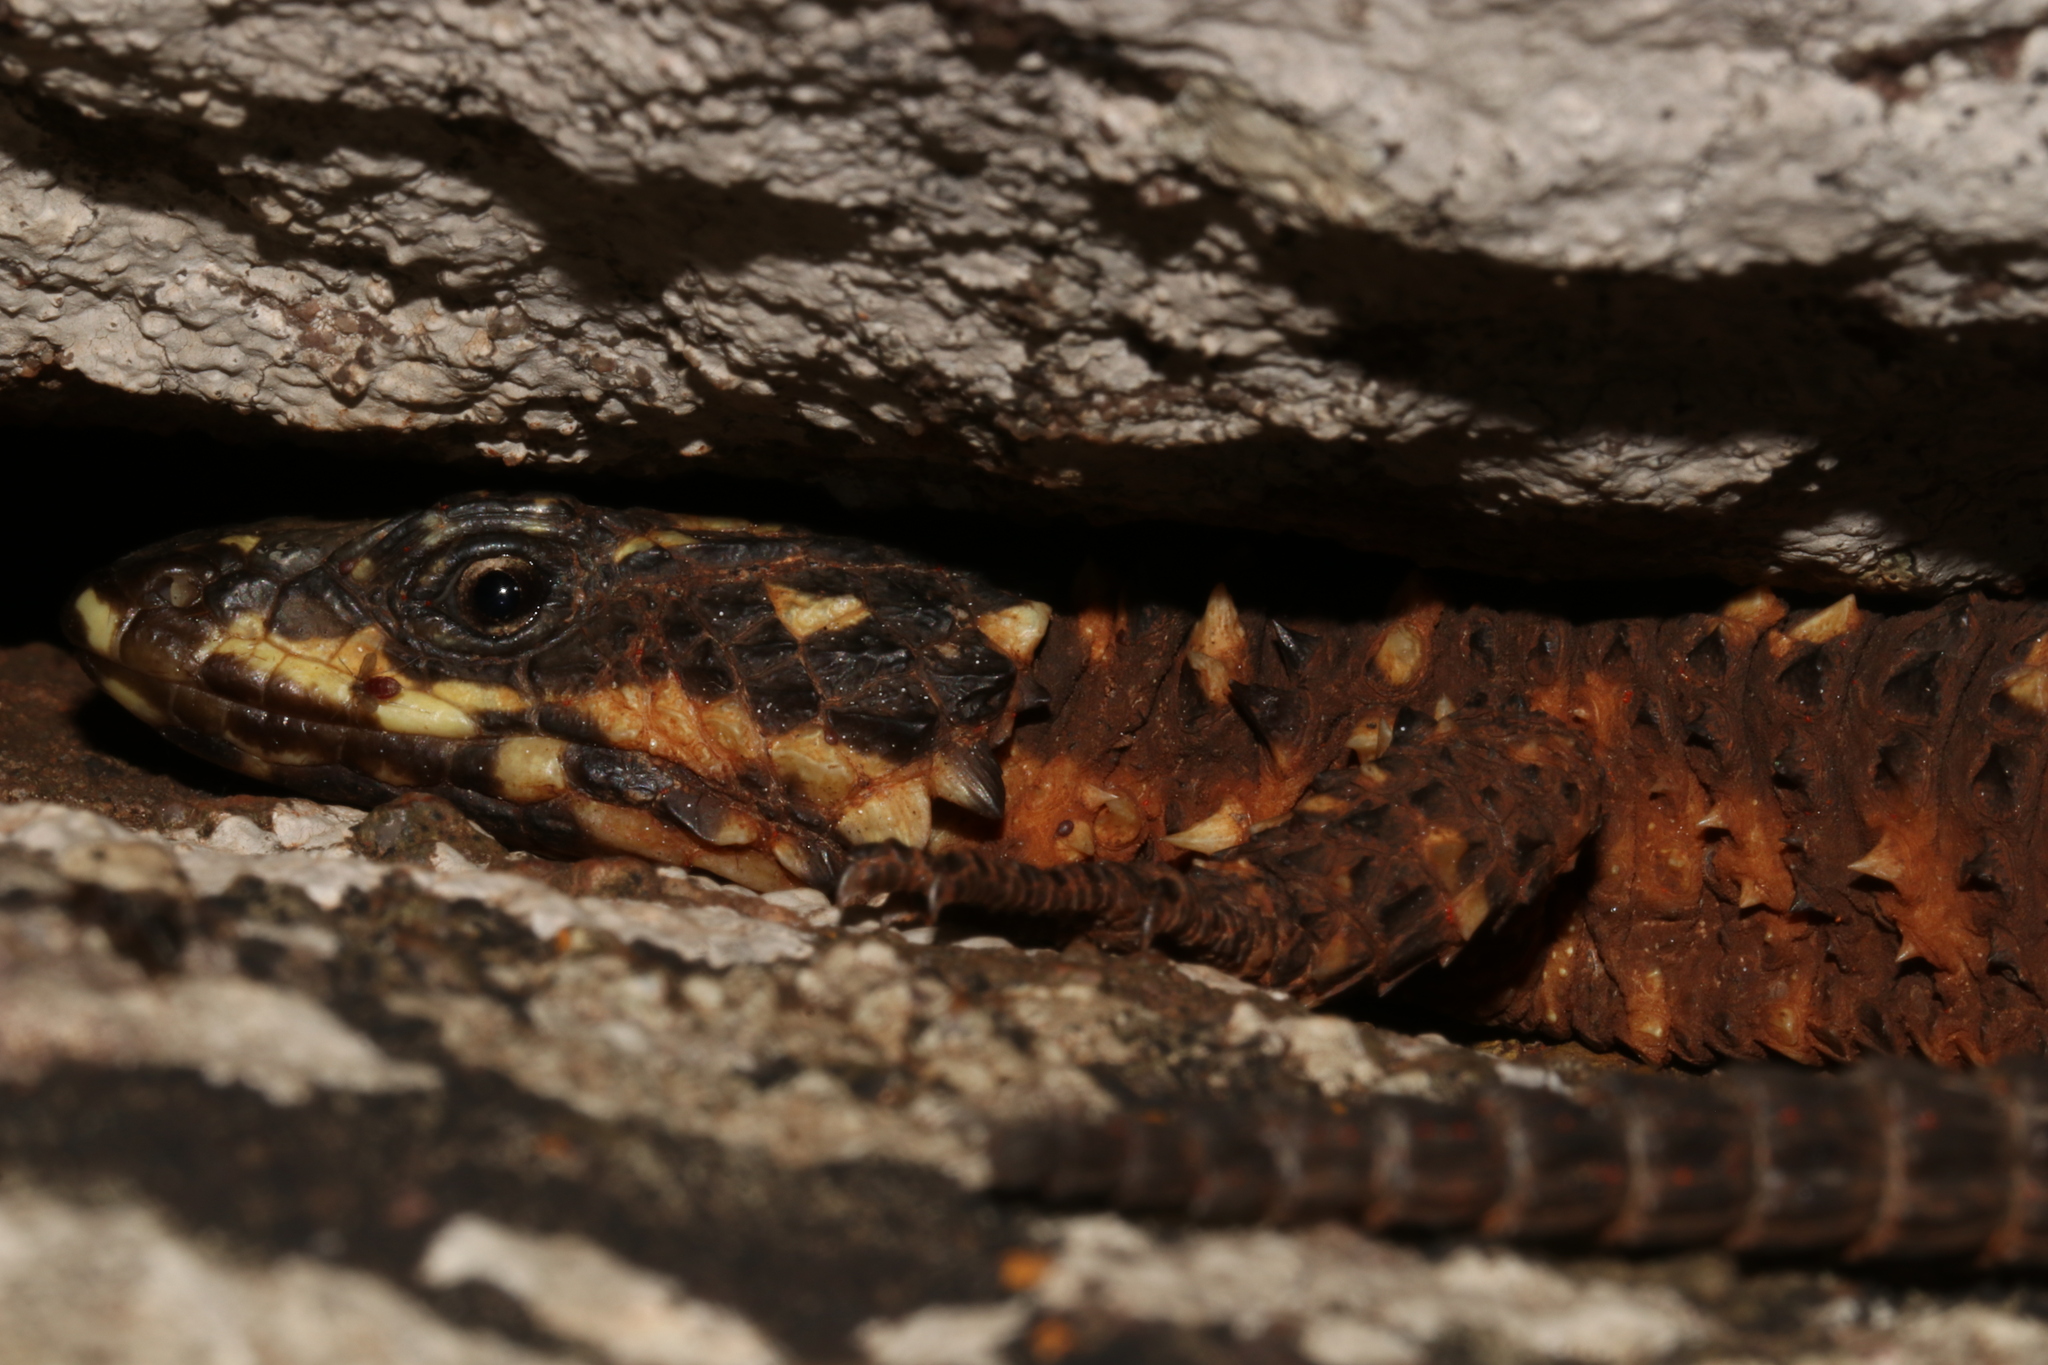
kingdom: Animalia
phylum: Chordata
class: Squamata
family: Cordylidae
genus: Smaug
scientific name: Smaug depressus
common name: Flat dragon lizard
